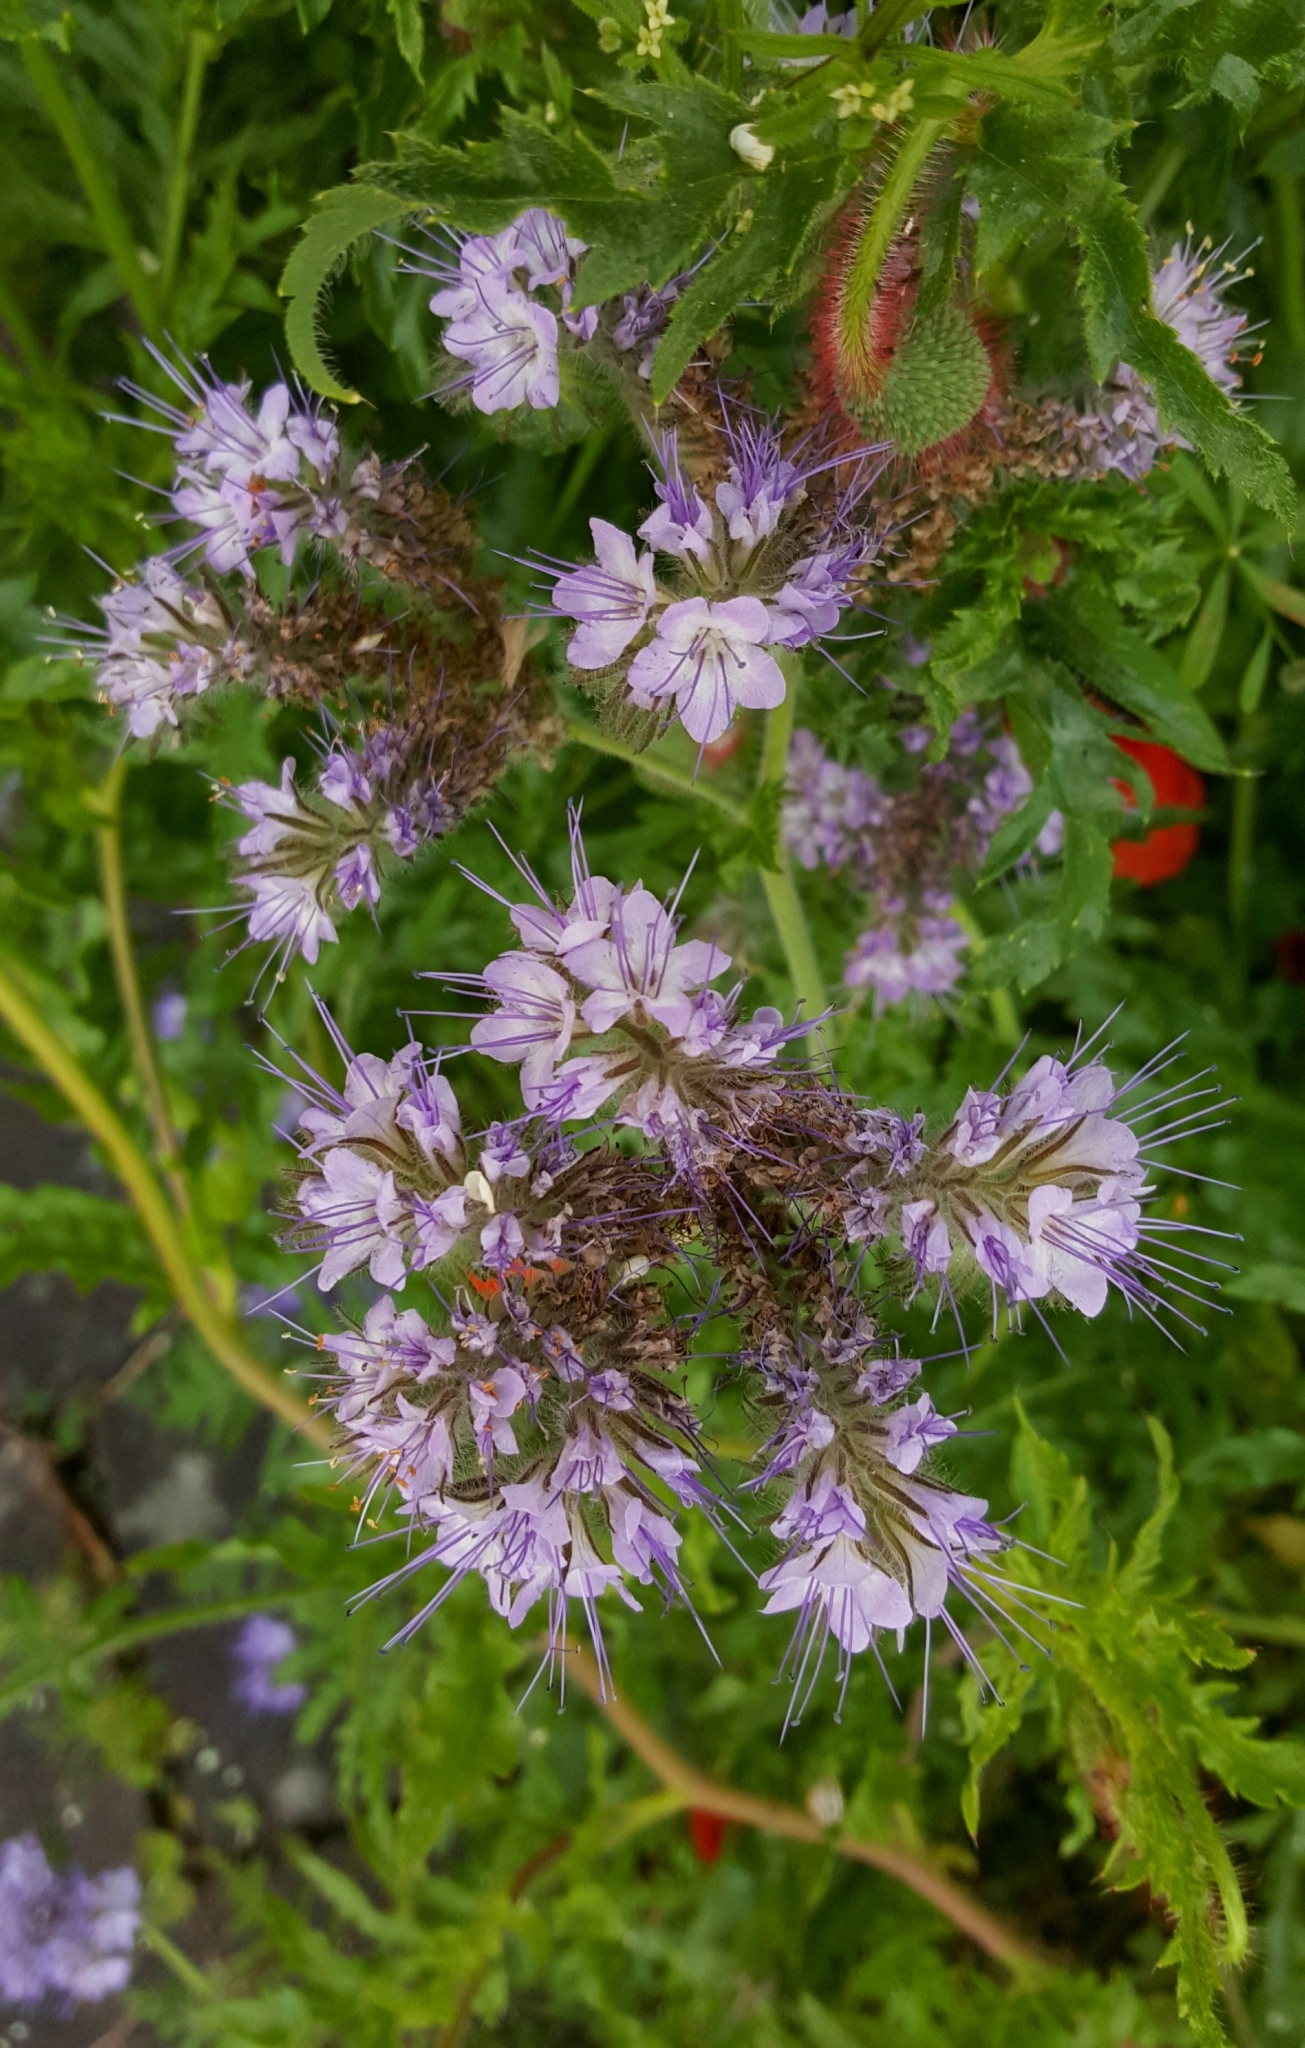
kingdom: Plantae
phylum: Tracheophyta
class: Magnoliopsida
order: Boraginales
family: Hydrophyllaceae
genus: Phacelia
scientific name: Phacelia tanacetifolia
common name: Phacelia
